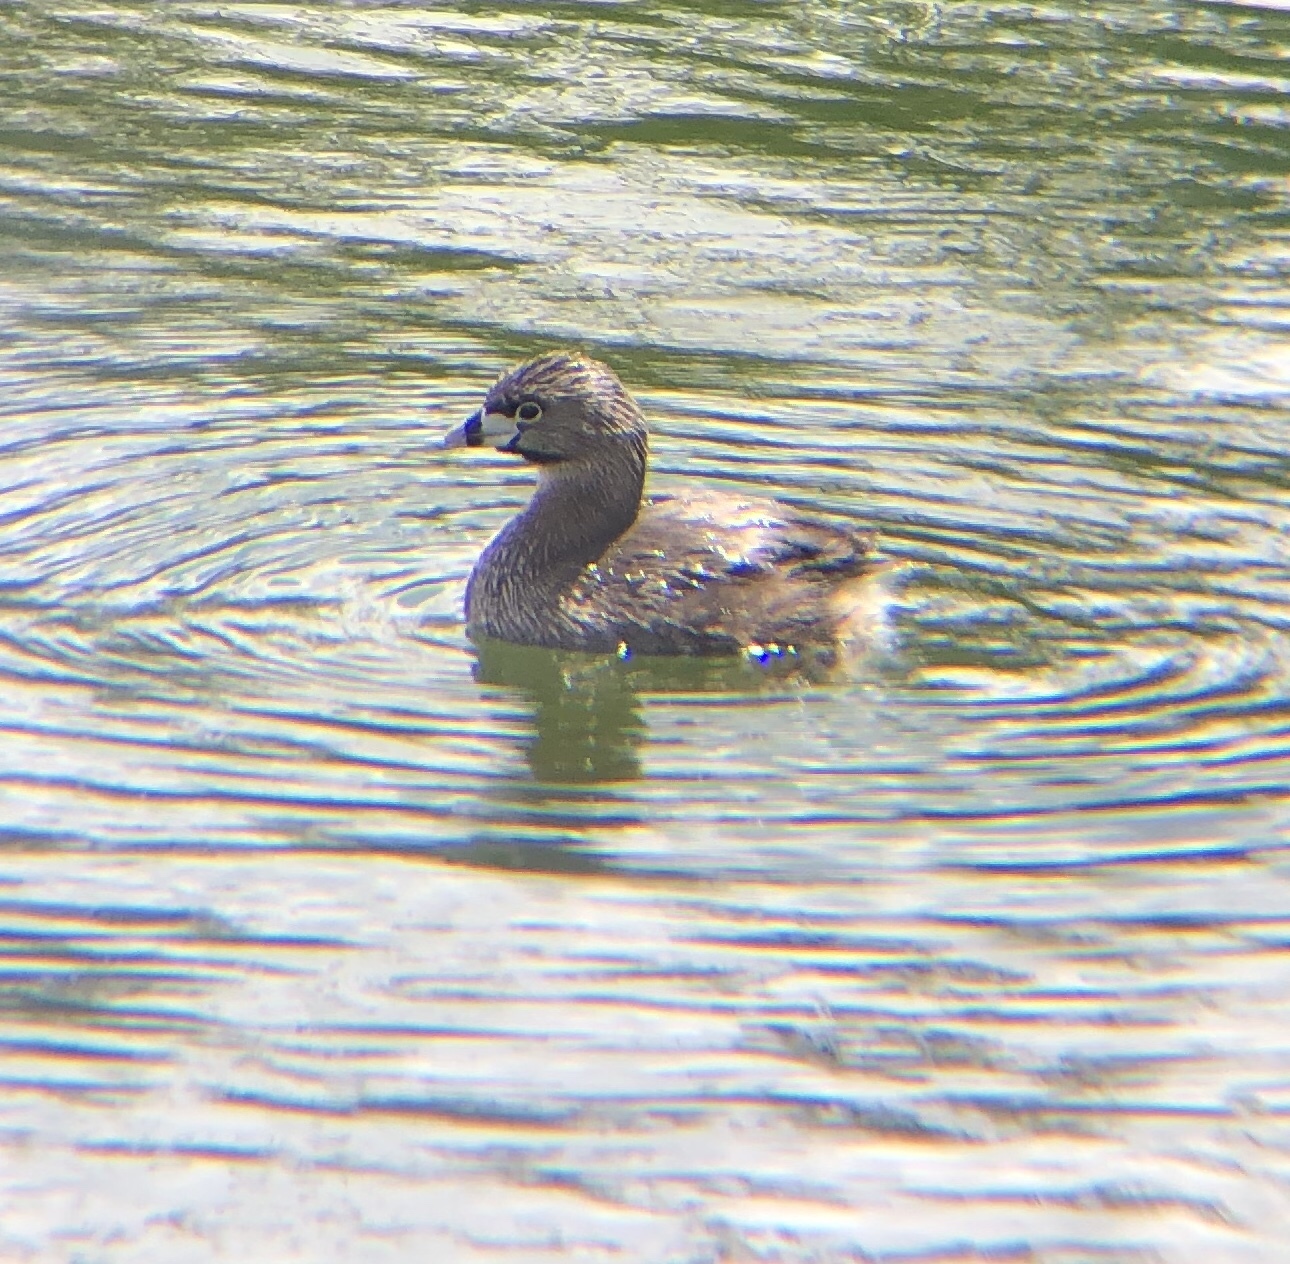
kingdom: Animalia
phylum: Chordata
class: Aves
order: Podicipediformes
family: Podicipedidae
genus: Podilymbus
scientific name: Podilymbus podiceps
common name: Pied-billed grebe
